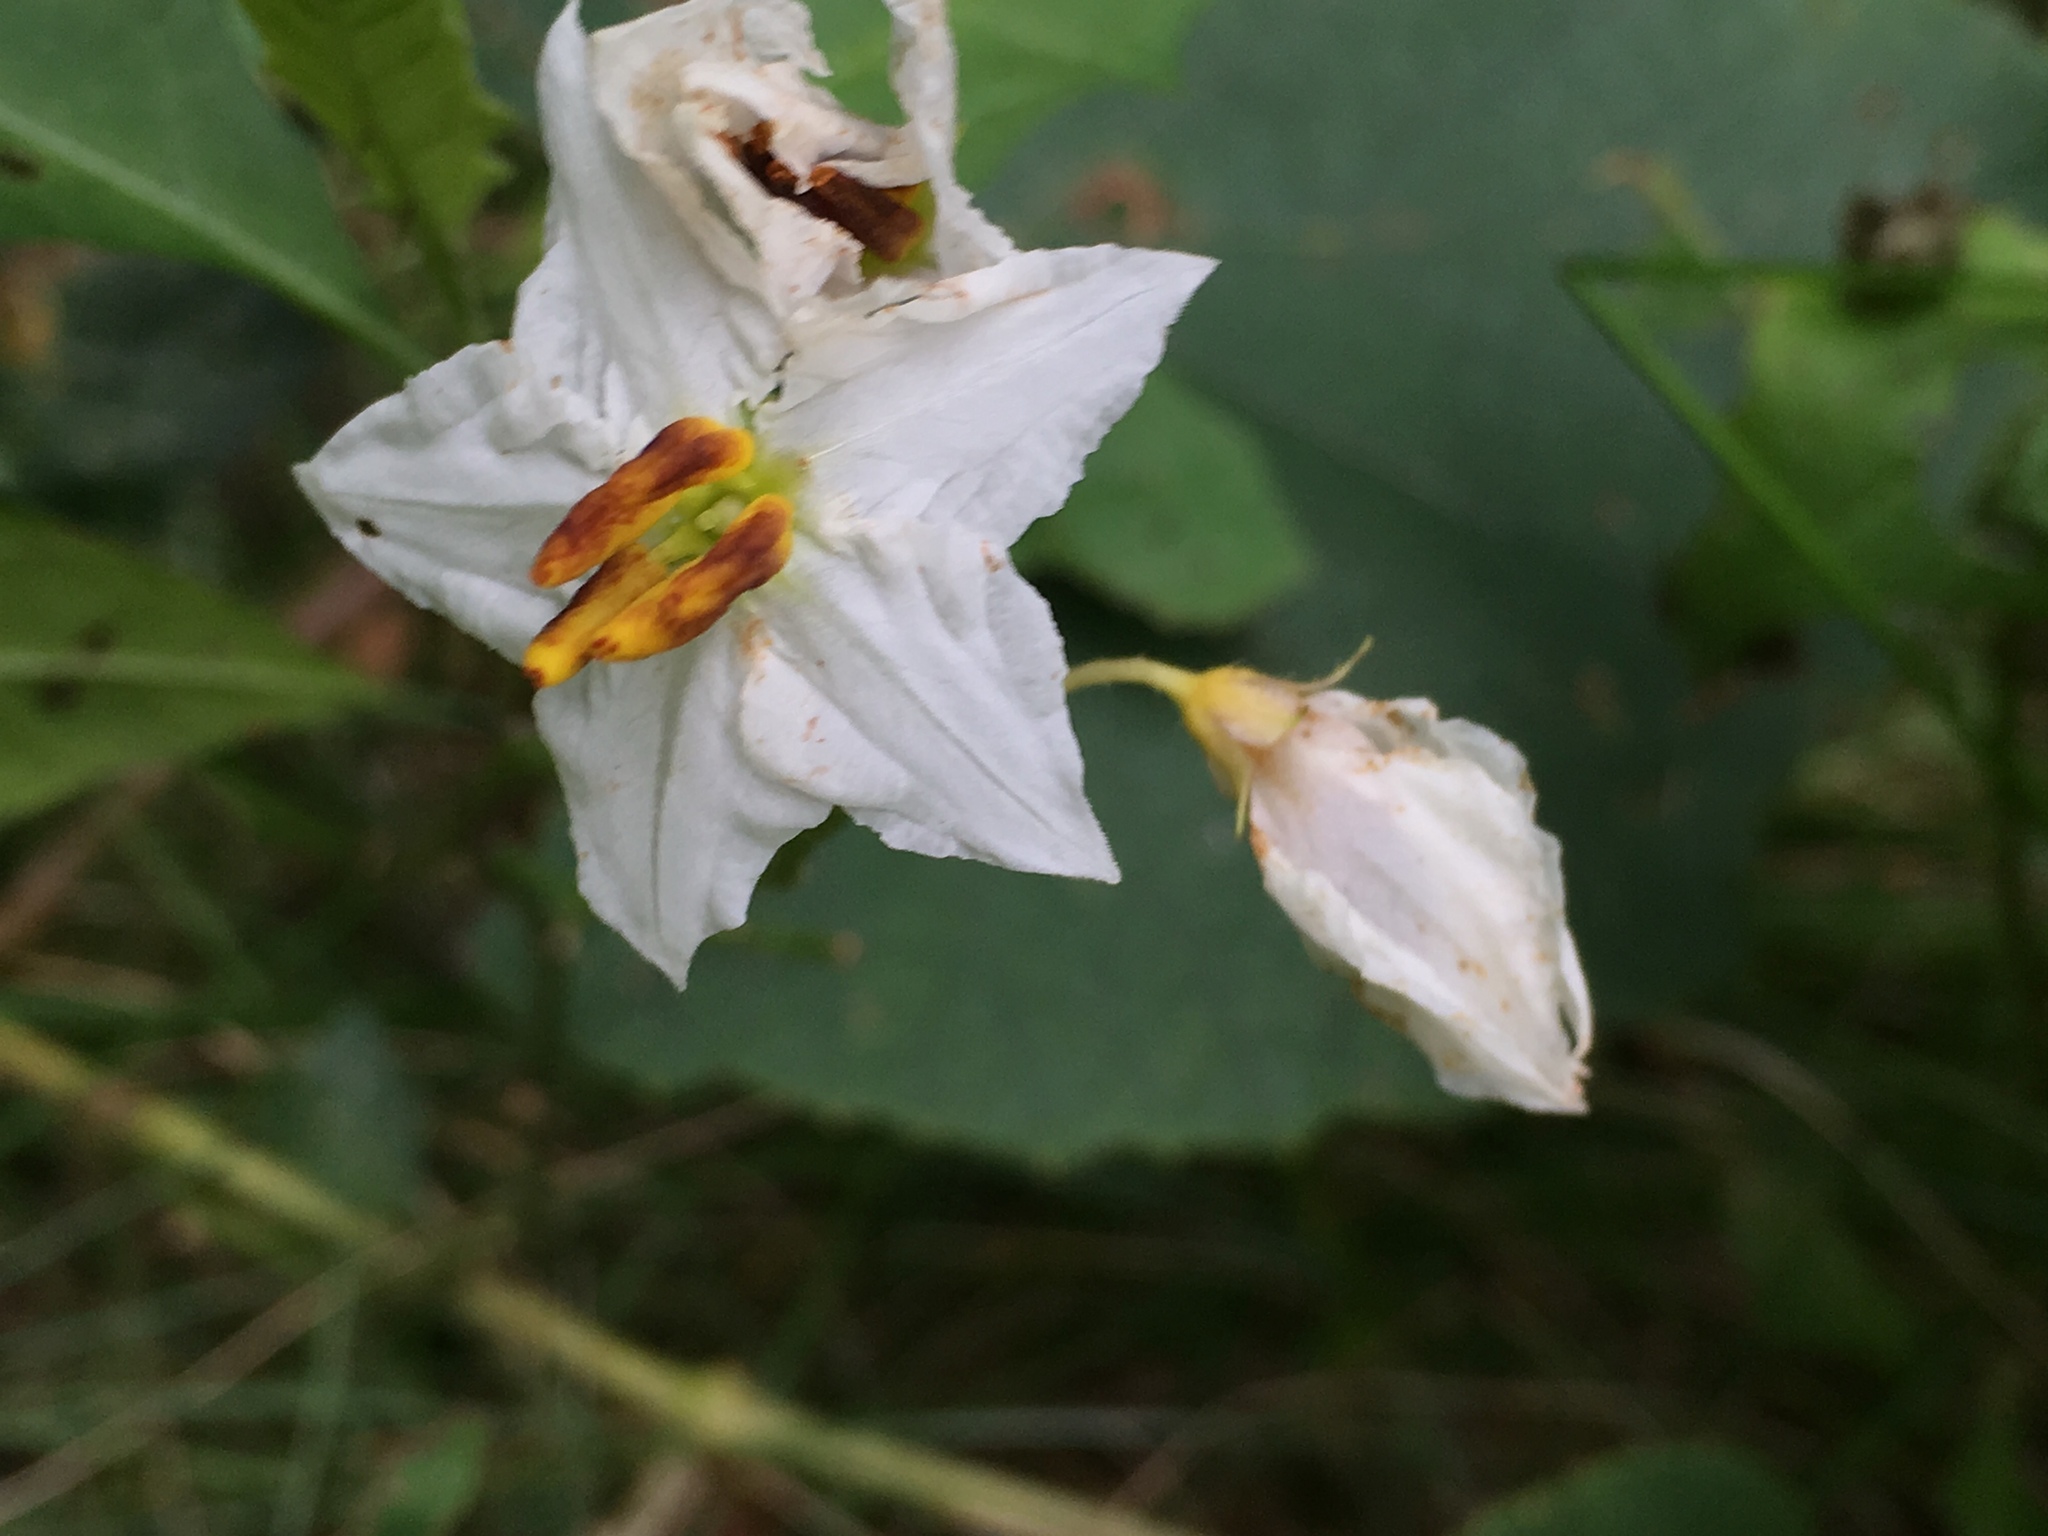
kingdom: Plantae
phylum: Tracheophyta
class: Magnoliopsida
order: Solanales
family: Solanaceae
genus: Solanum
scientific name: Solanum carolinense
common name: Horse-nettle
